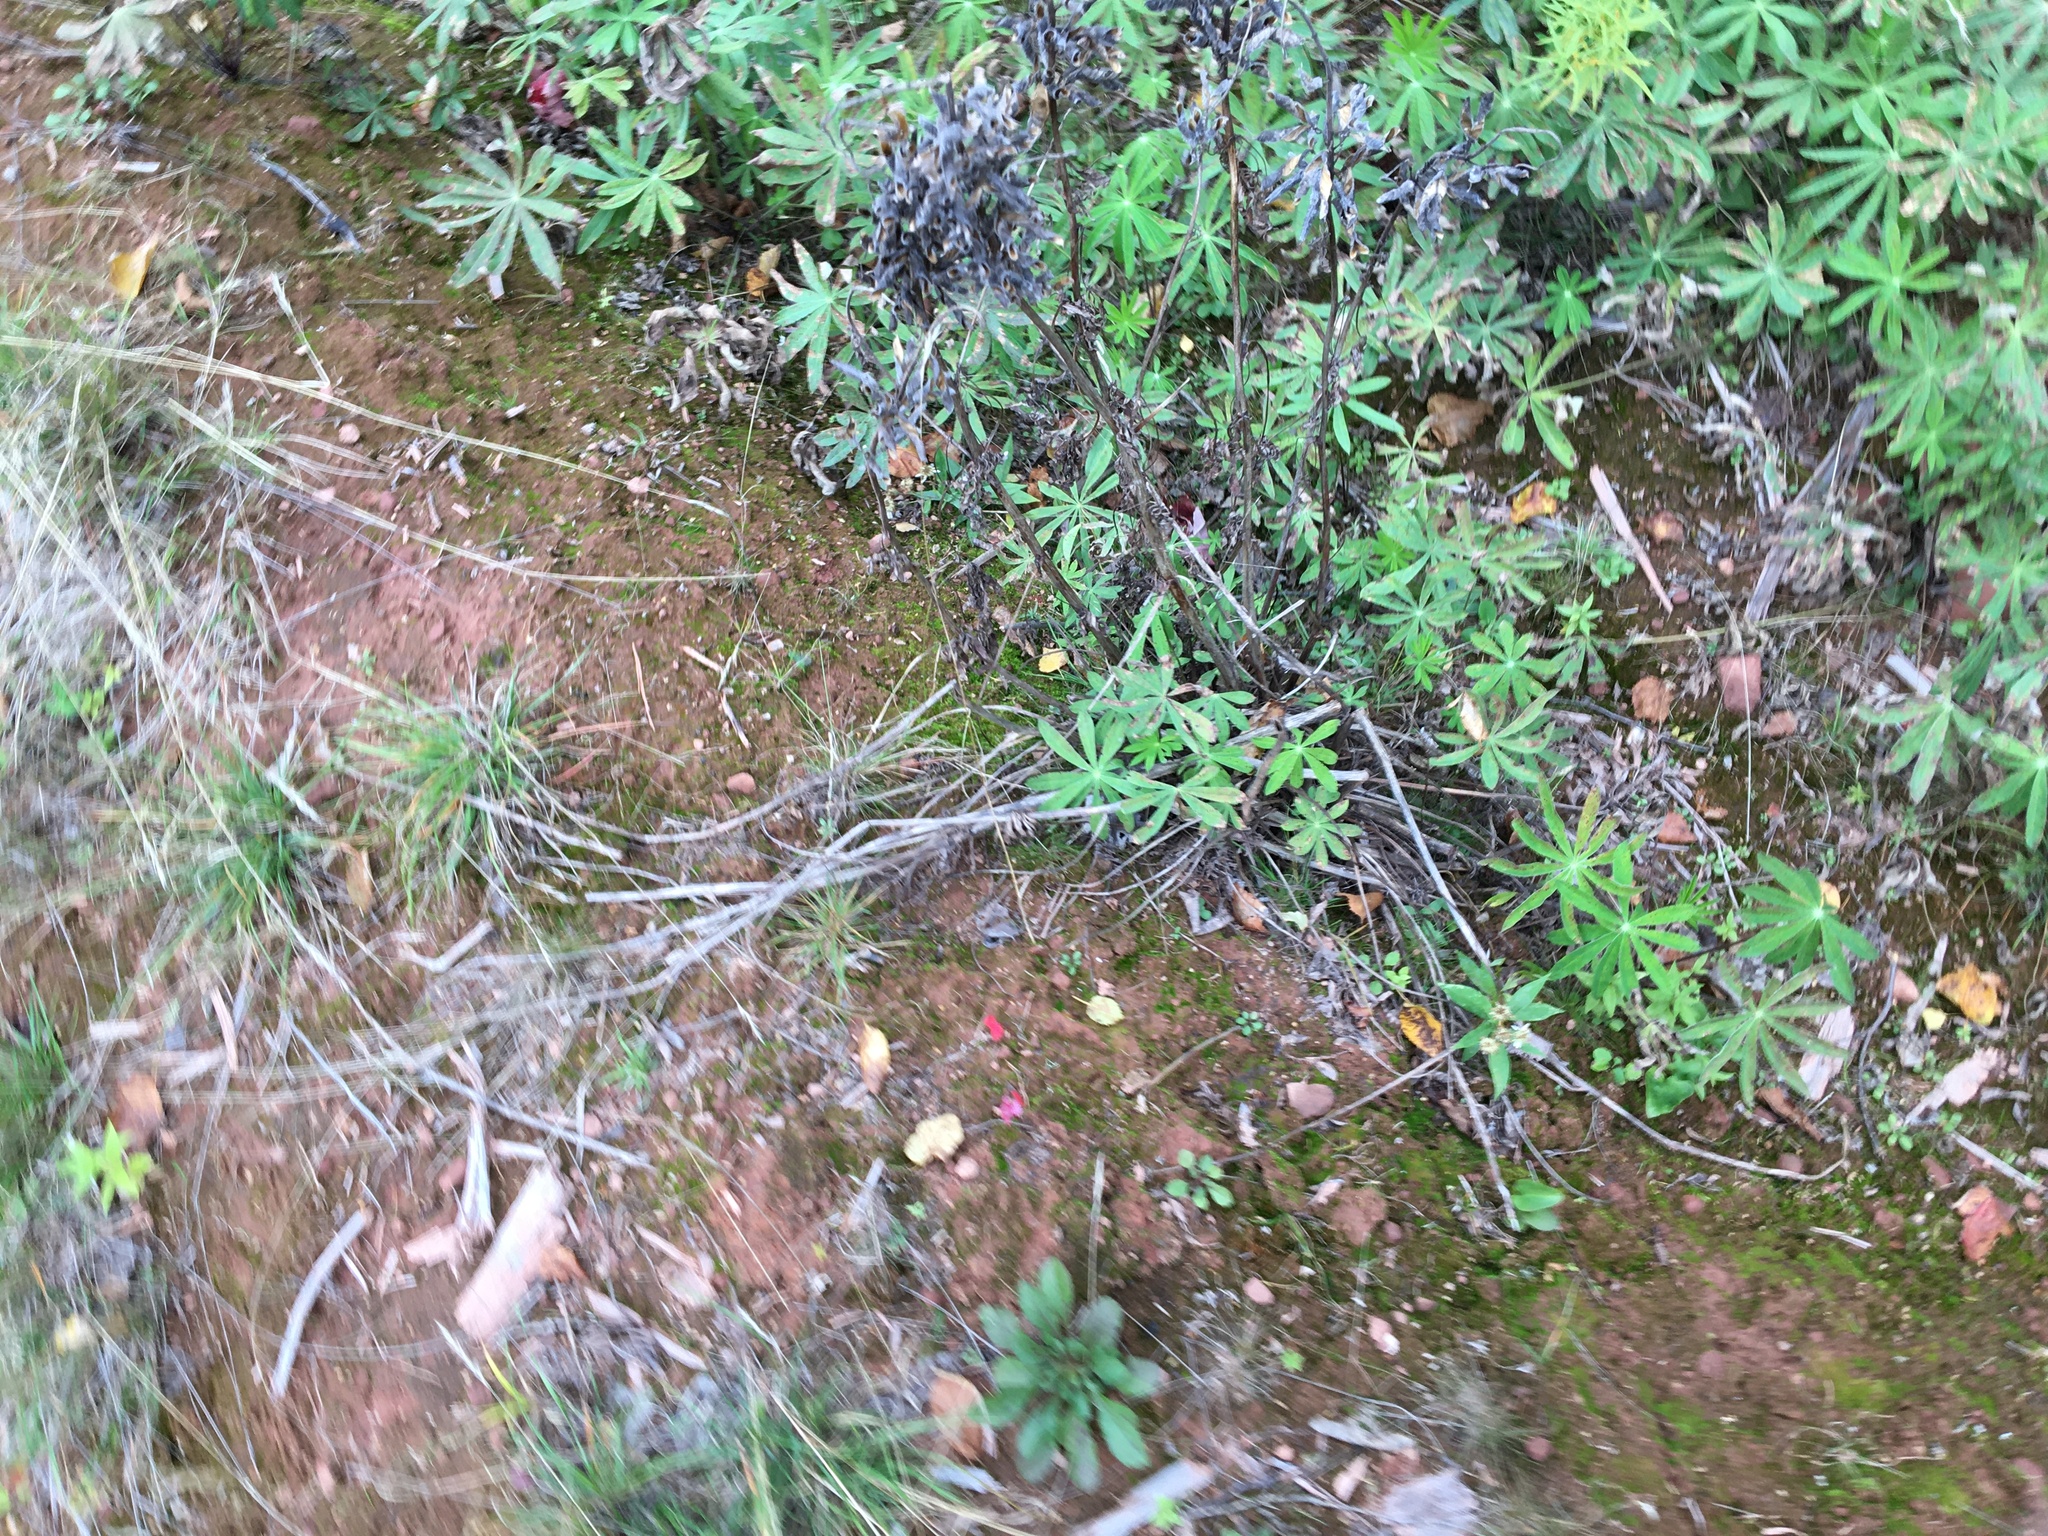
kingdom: Plantae
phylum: Tracheophyta
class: Magnoliopsida
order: Fabales
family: Fabaceae
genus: Lupinus
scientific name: Lupinus polyphyllus
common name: Garden lupin
